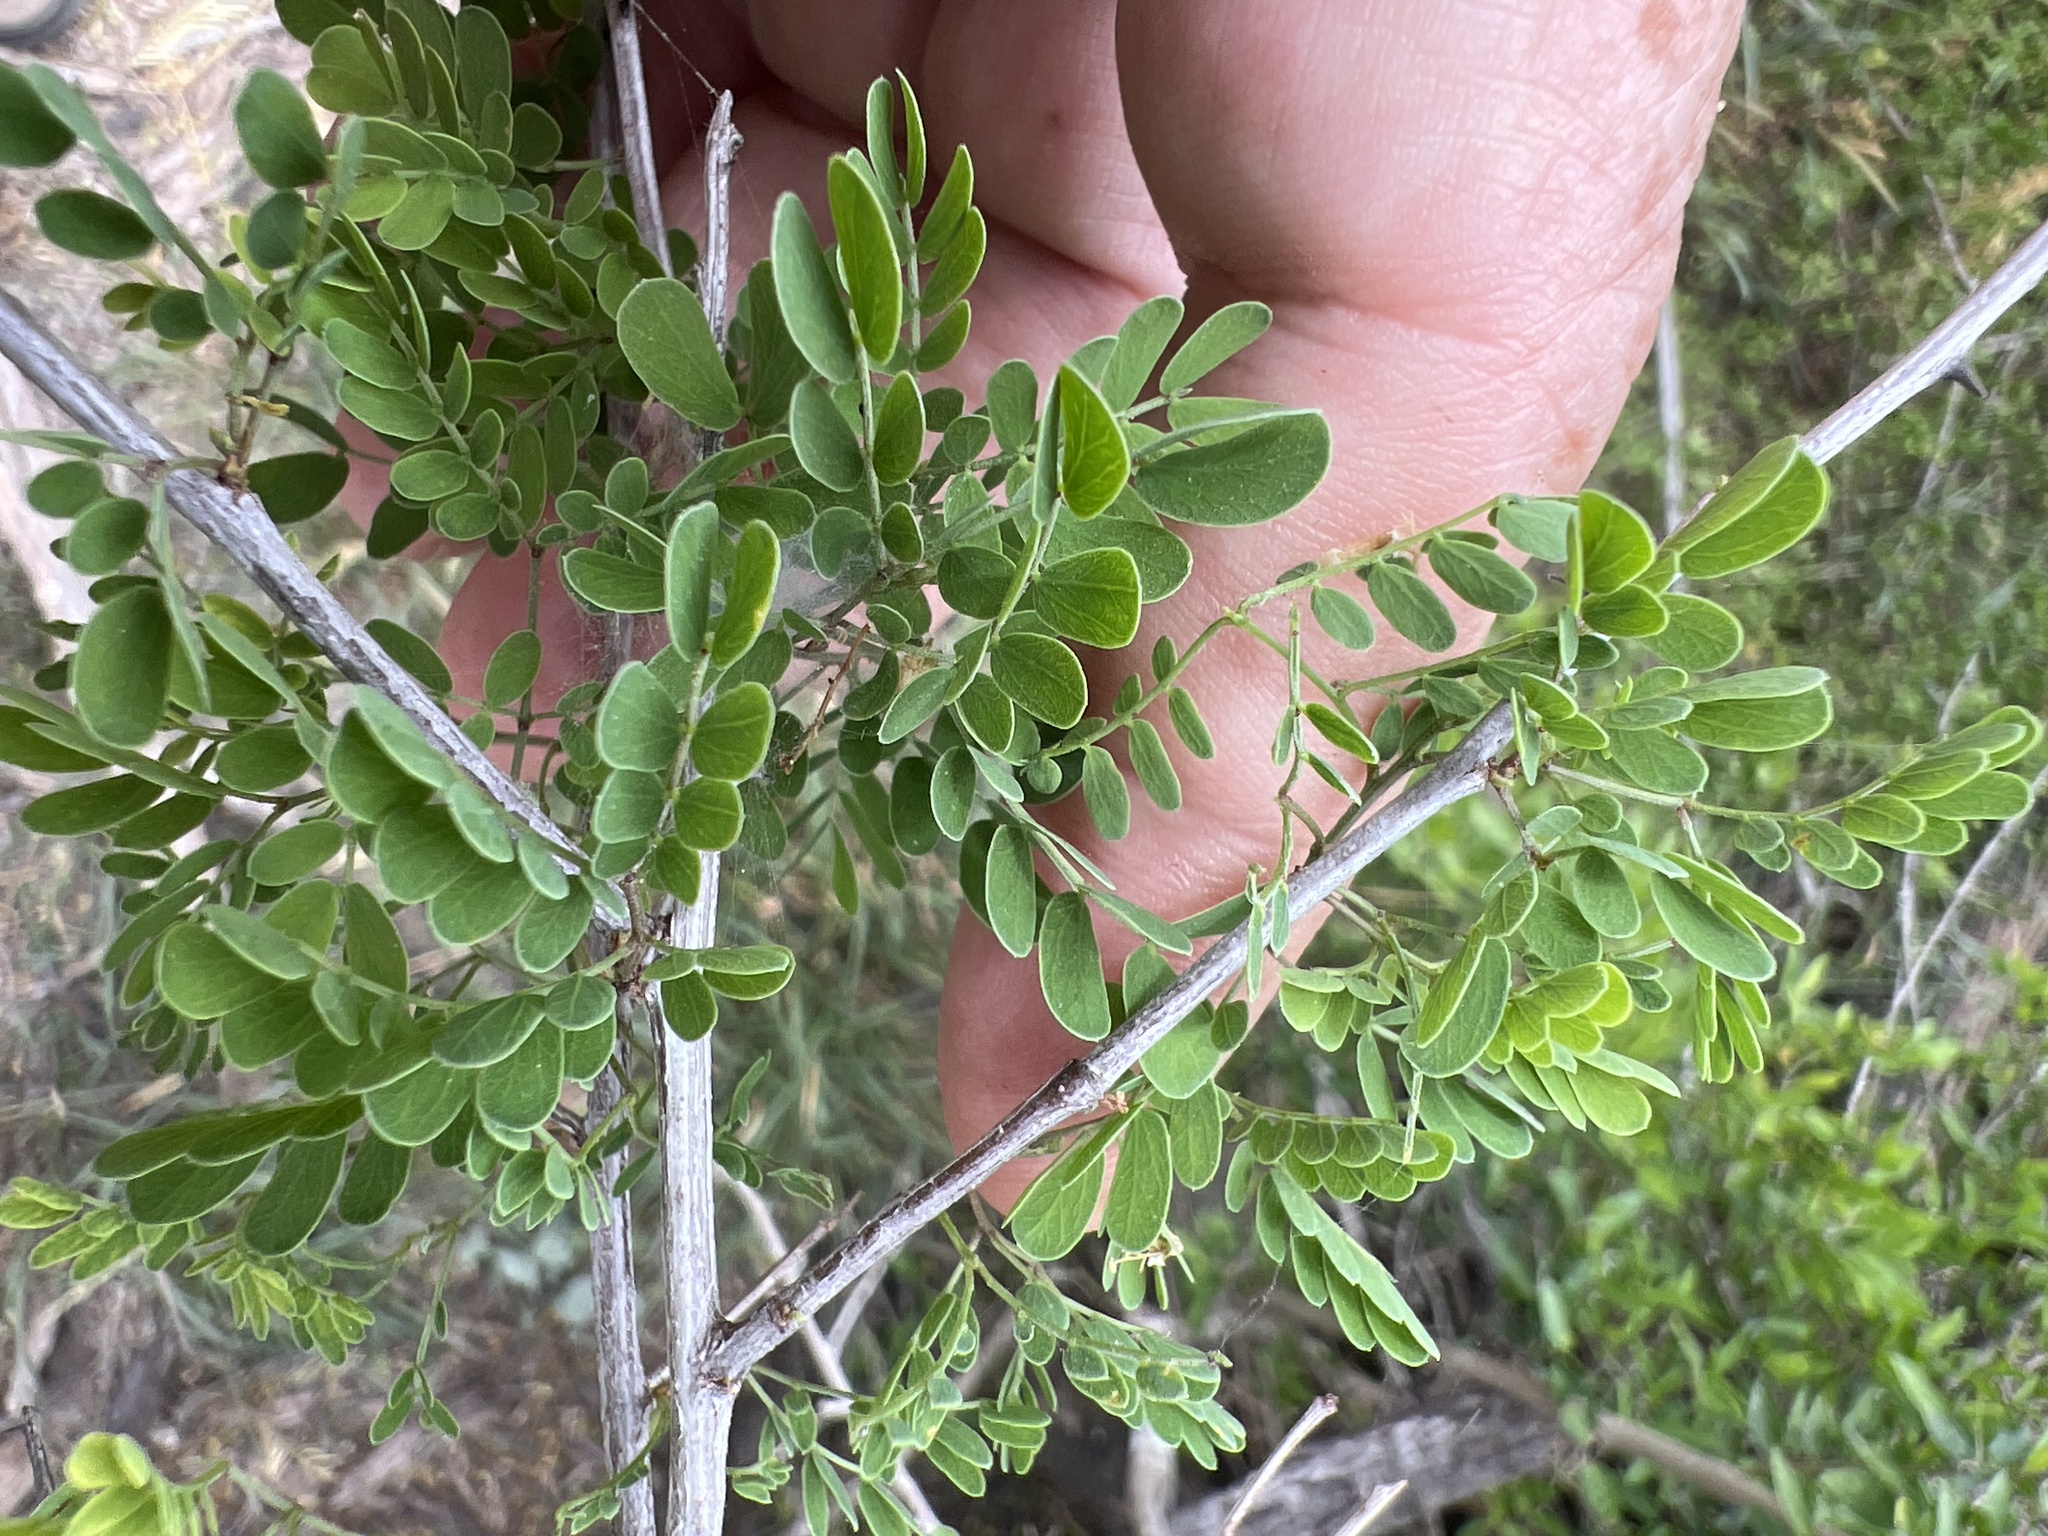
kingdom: Plantae
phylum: Tracheophyta
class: Magnoliopsida
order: Fabales
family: Fabaceae
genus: Senegalia
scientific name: Senegalia wrightii
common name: Texas cat's-claw
